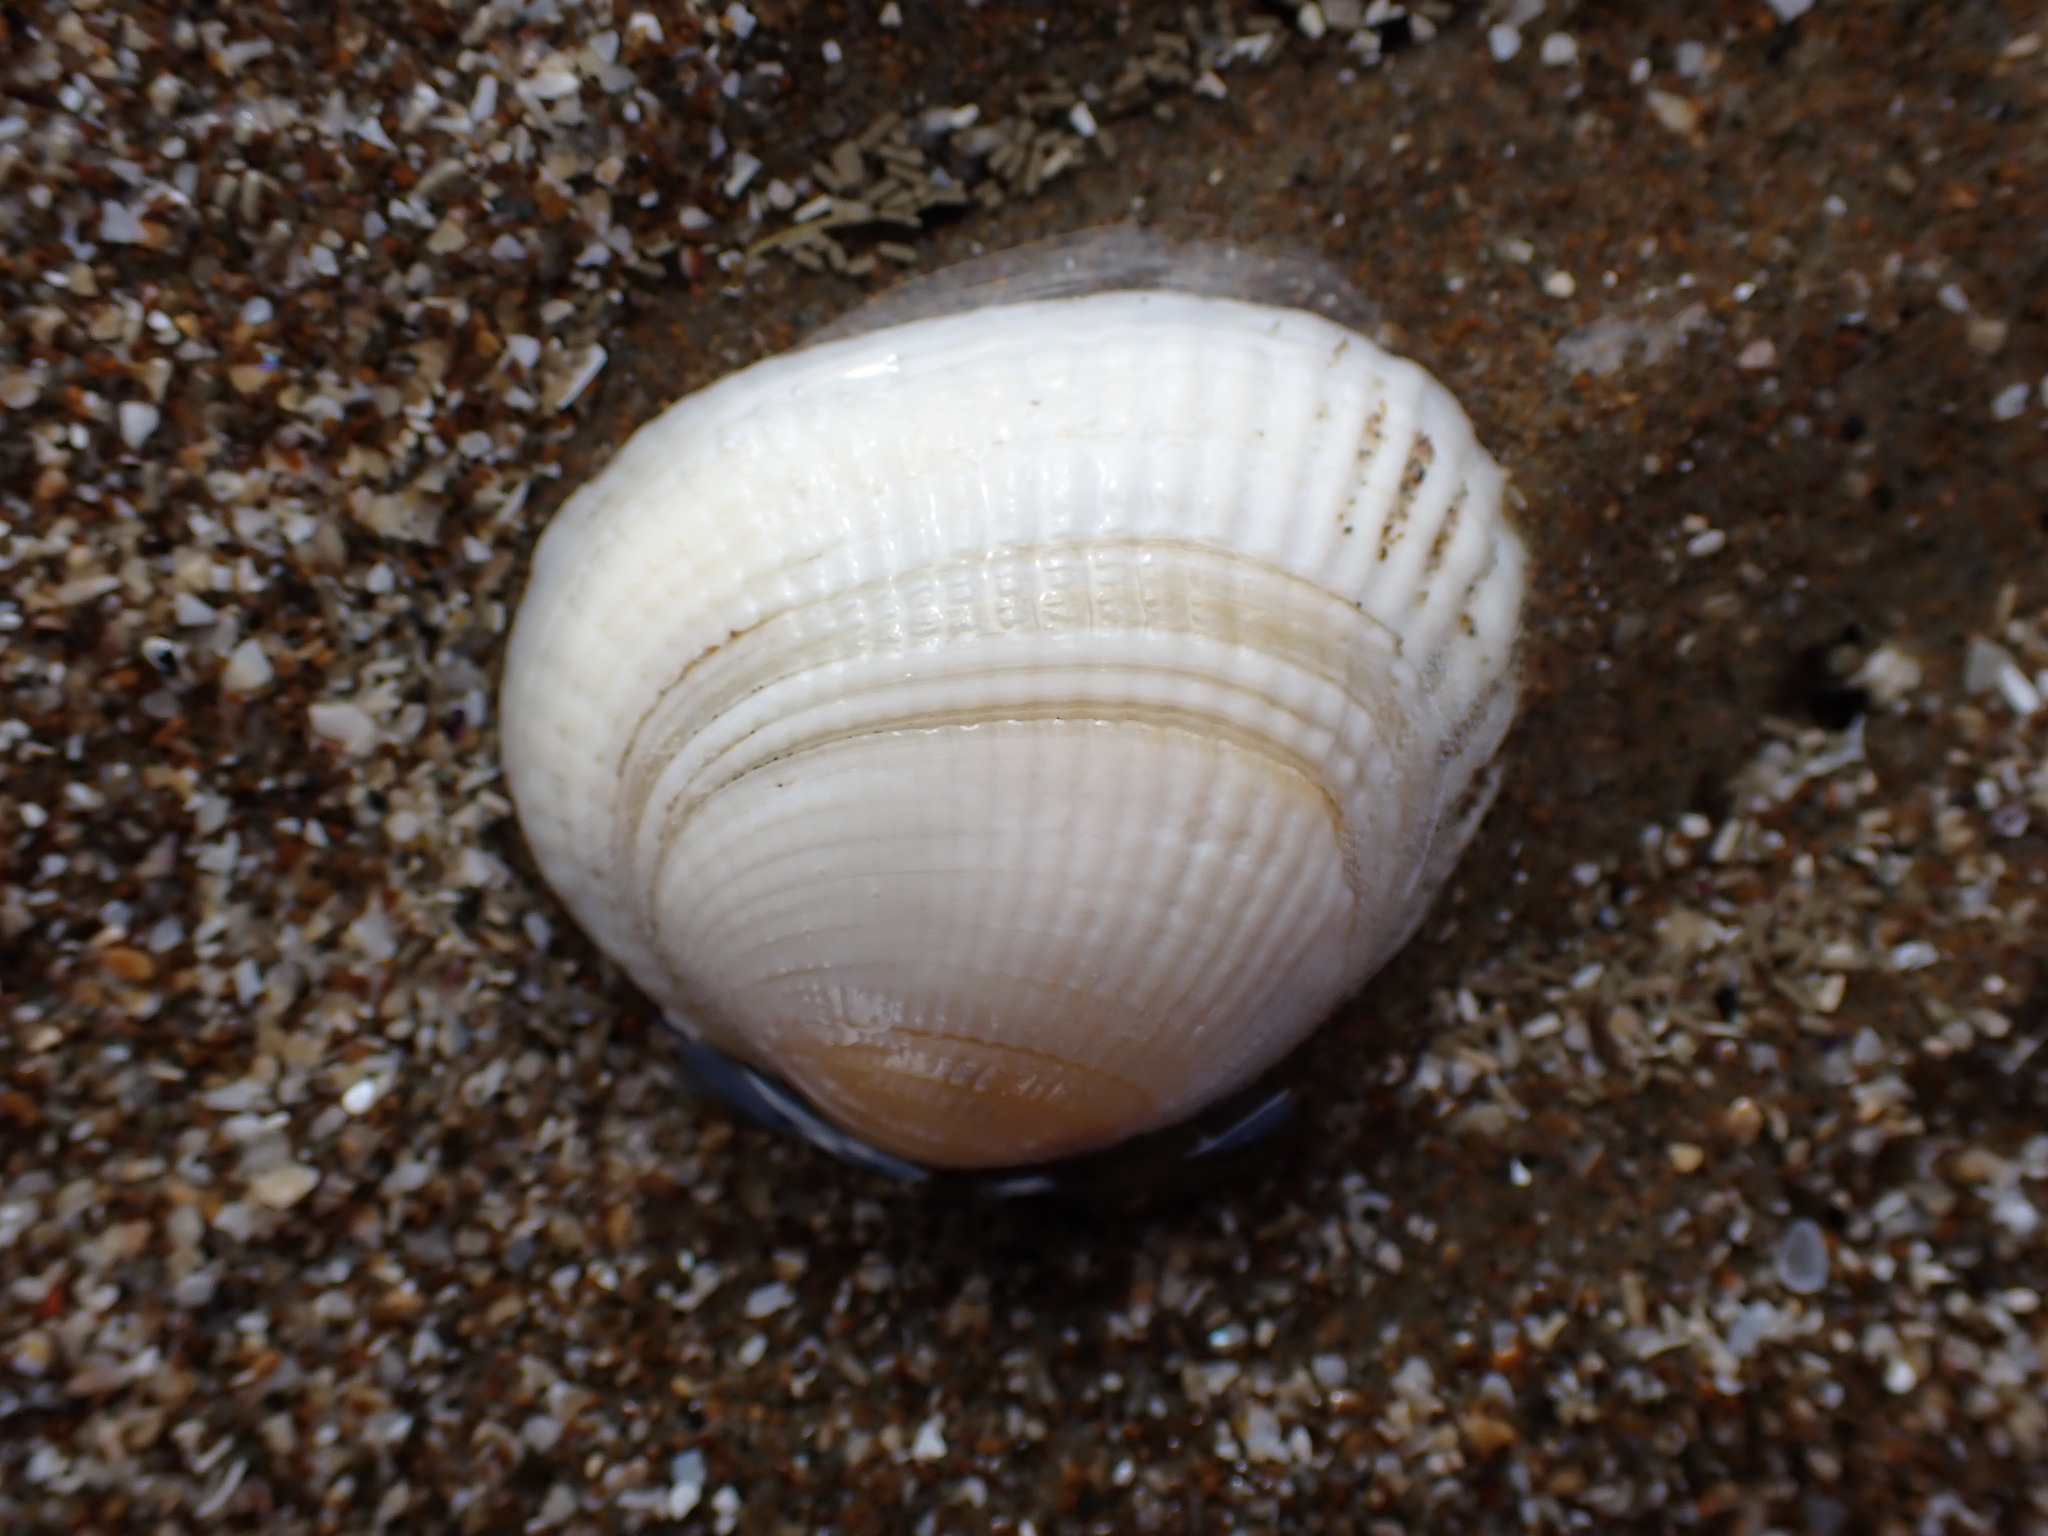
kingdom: Animalia
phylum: Mollusca
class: Bivalvia
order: Venerida
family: Veneridae
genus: Leukoma
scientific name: Leukoma crassicosta
